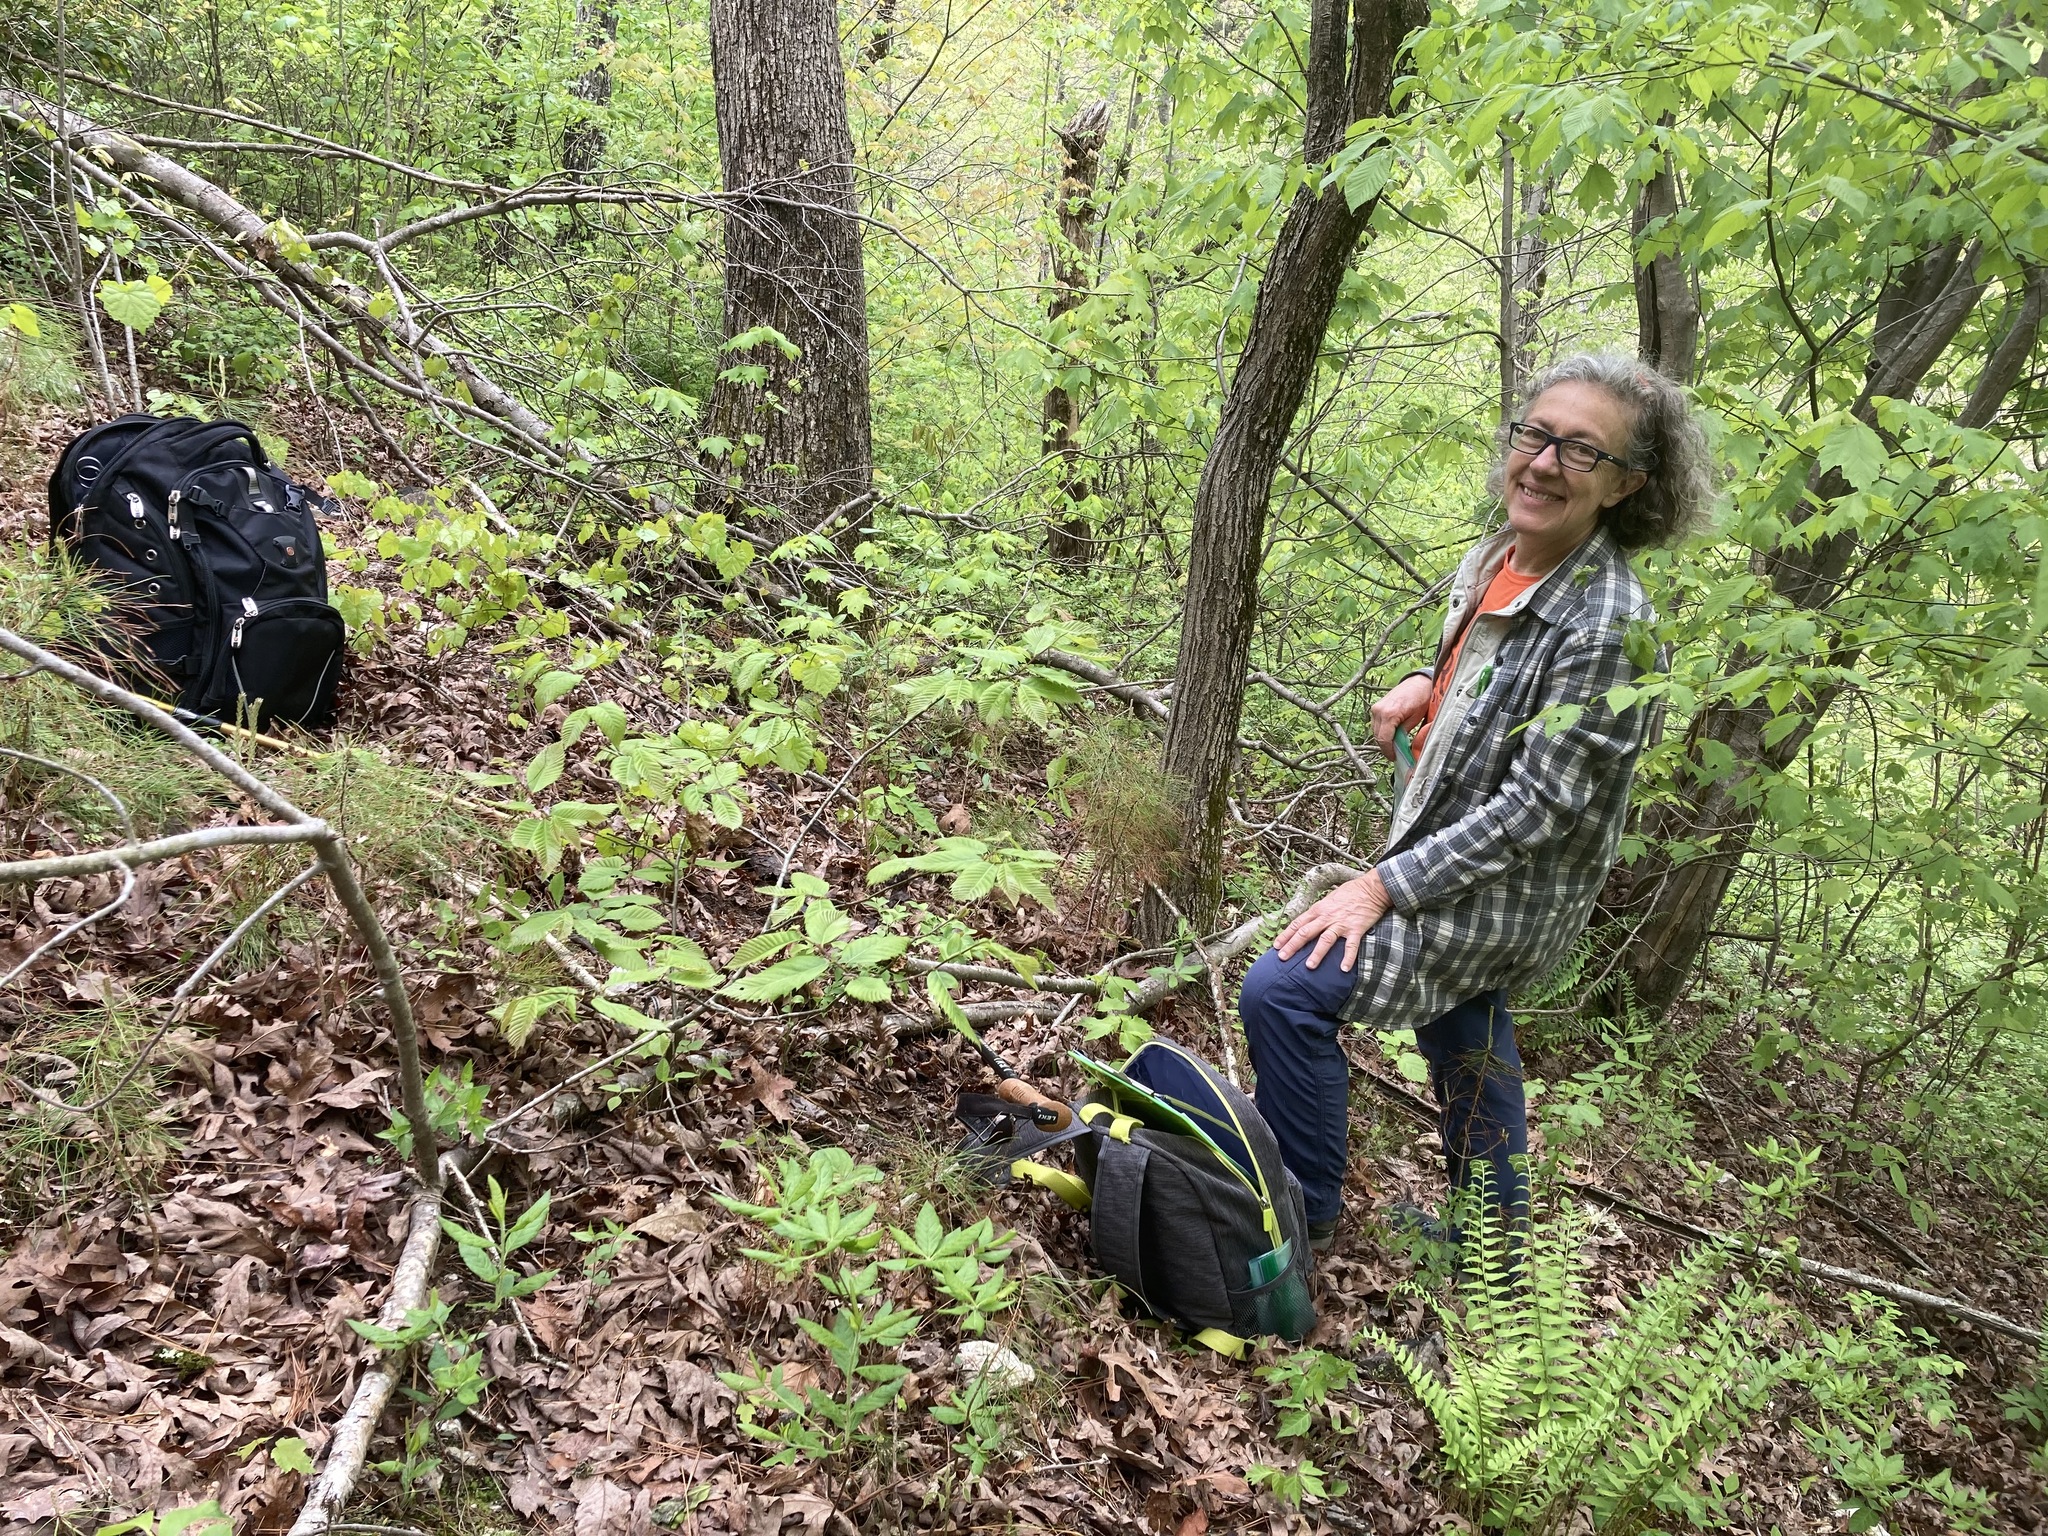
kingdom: Plantae
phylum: Tracheophyta
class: Magnoliopsida
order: Fagales
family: Fagaceae
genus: Castanea
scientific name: Castanea ozarkensis
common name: Ozark chinkapin
